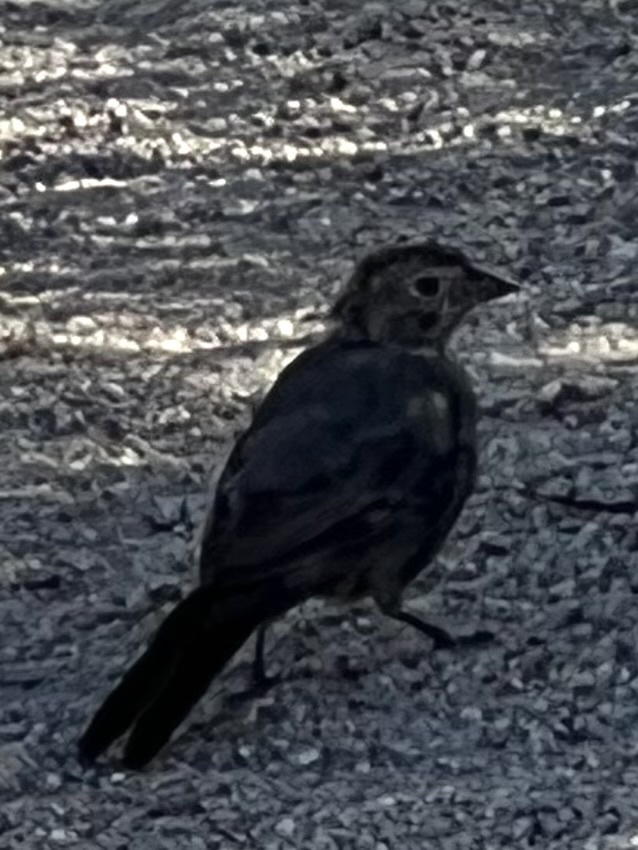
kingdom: Animalia
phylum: Chordata
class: Aves
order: Passeriformes
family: Passerellidae
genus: Melozone
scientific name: Melozone fusca
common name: Canyon towhee
